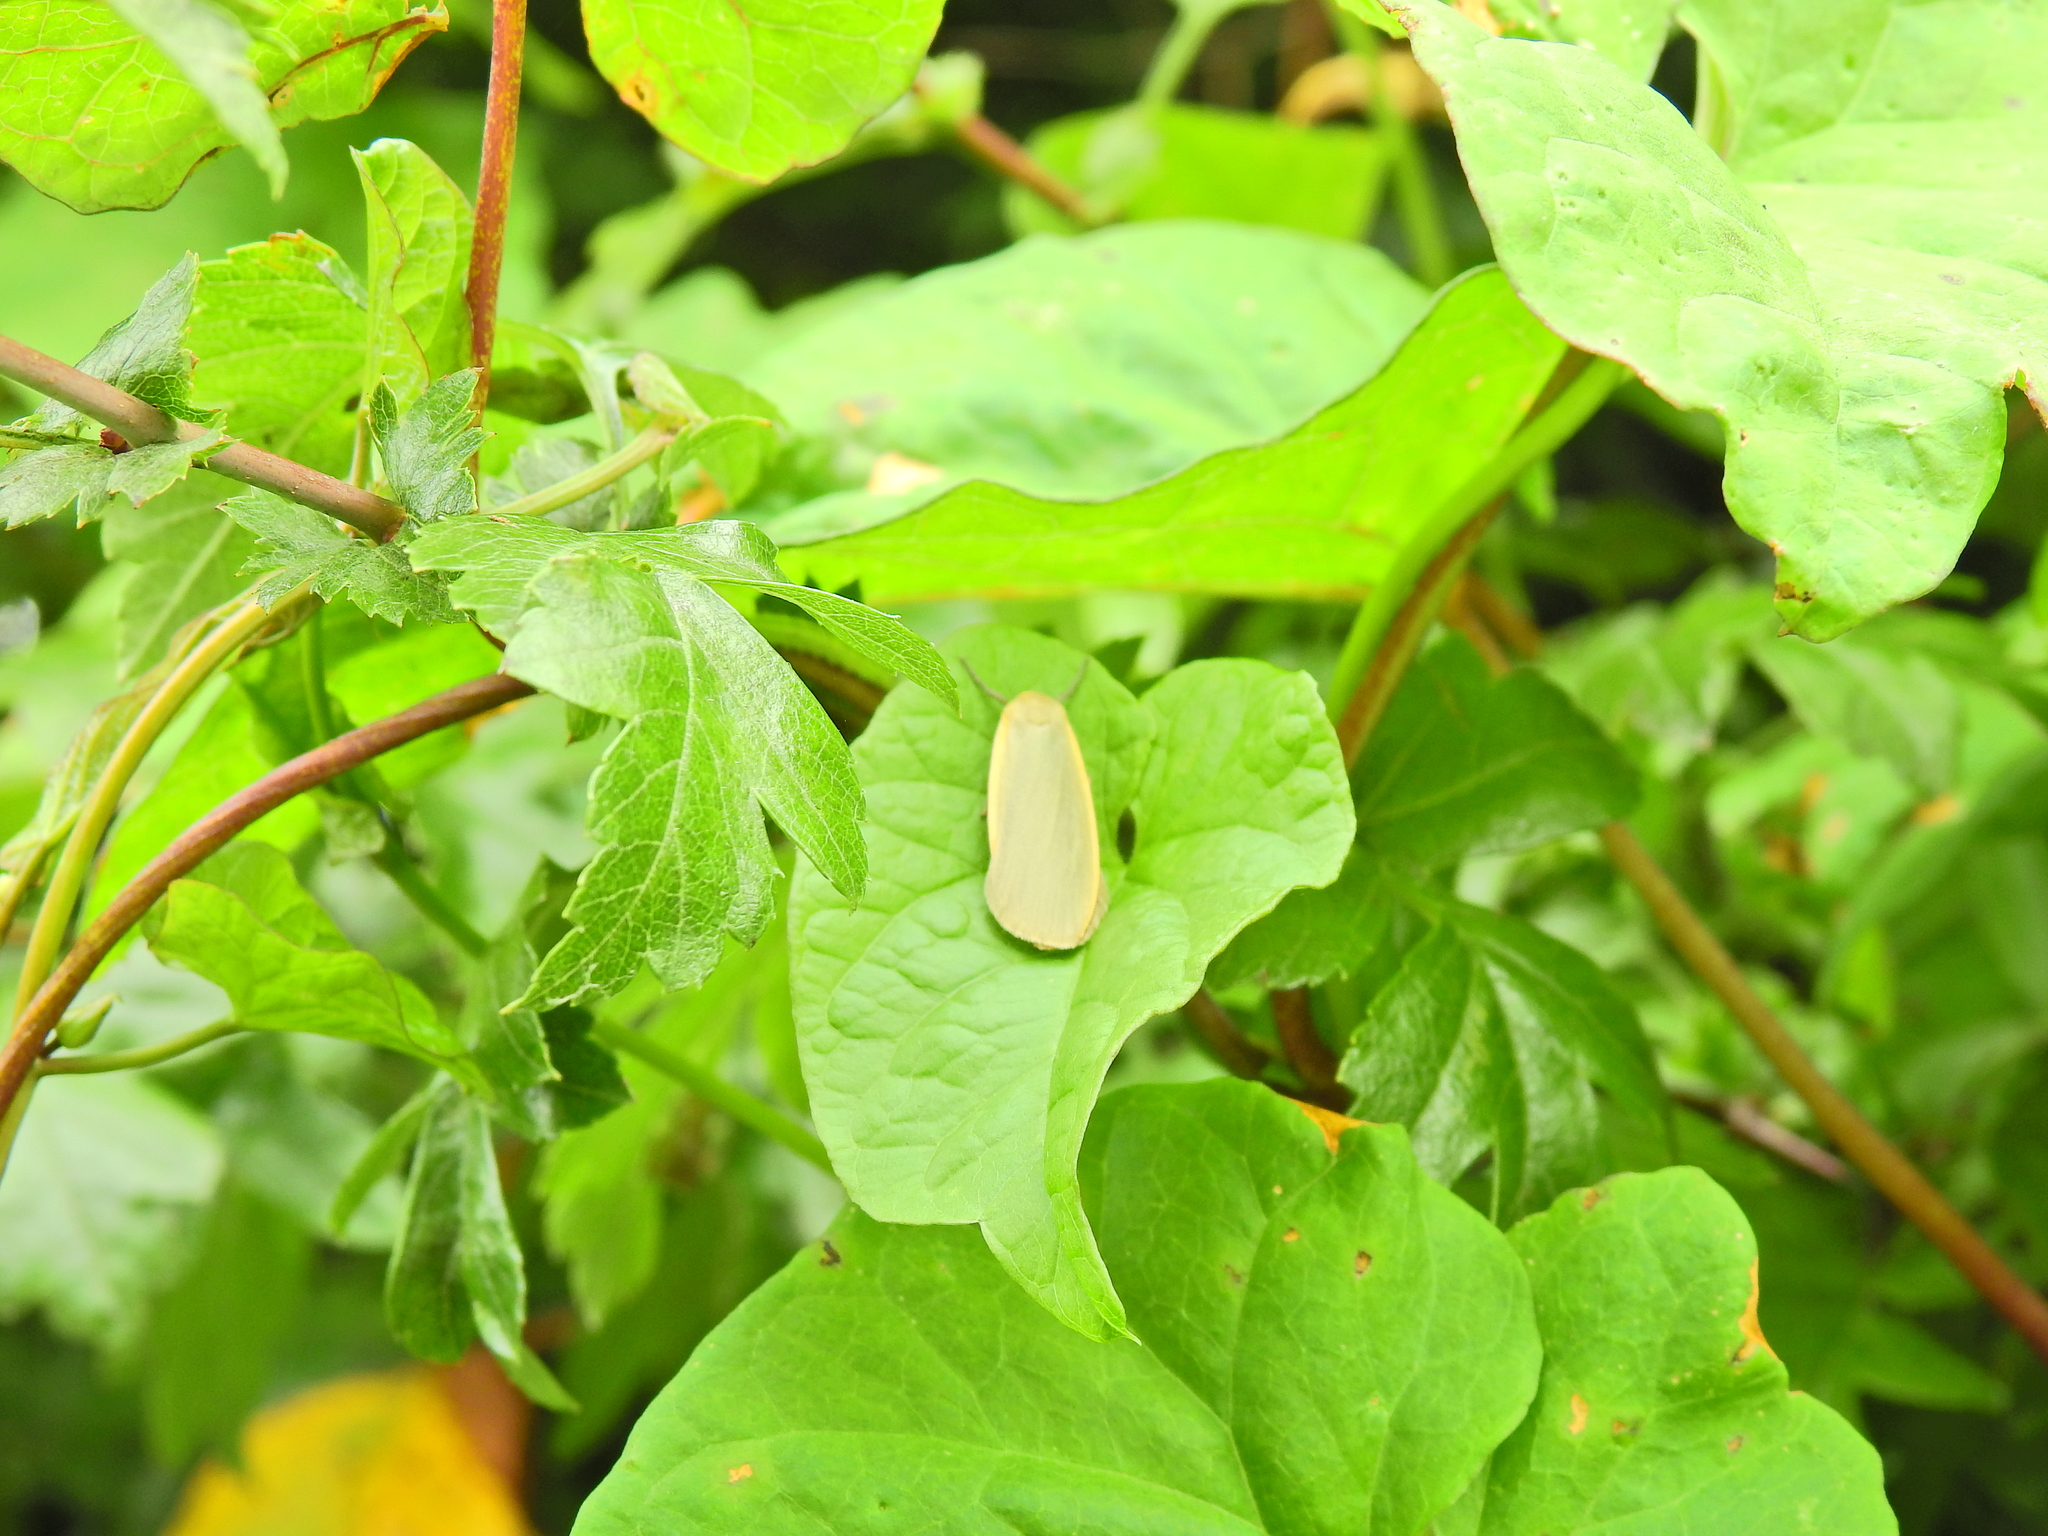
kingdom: Animalia
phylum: Arthropoda
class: Insecta
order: Lepidoptera
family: Erebidae
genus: Collita
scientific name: Collita griseola
